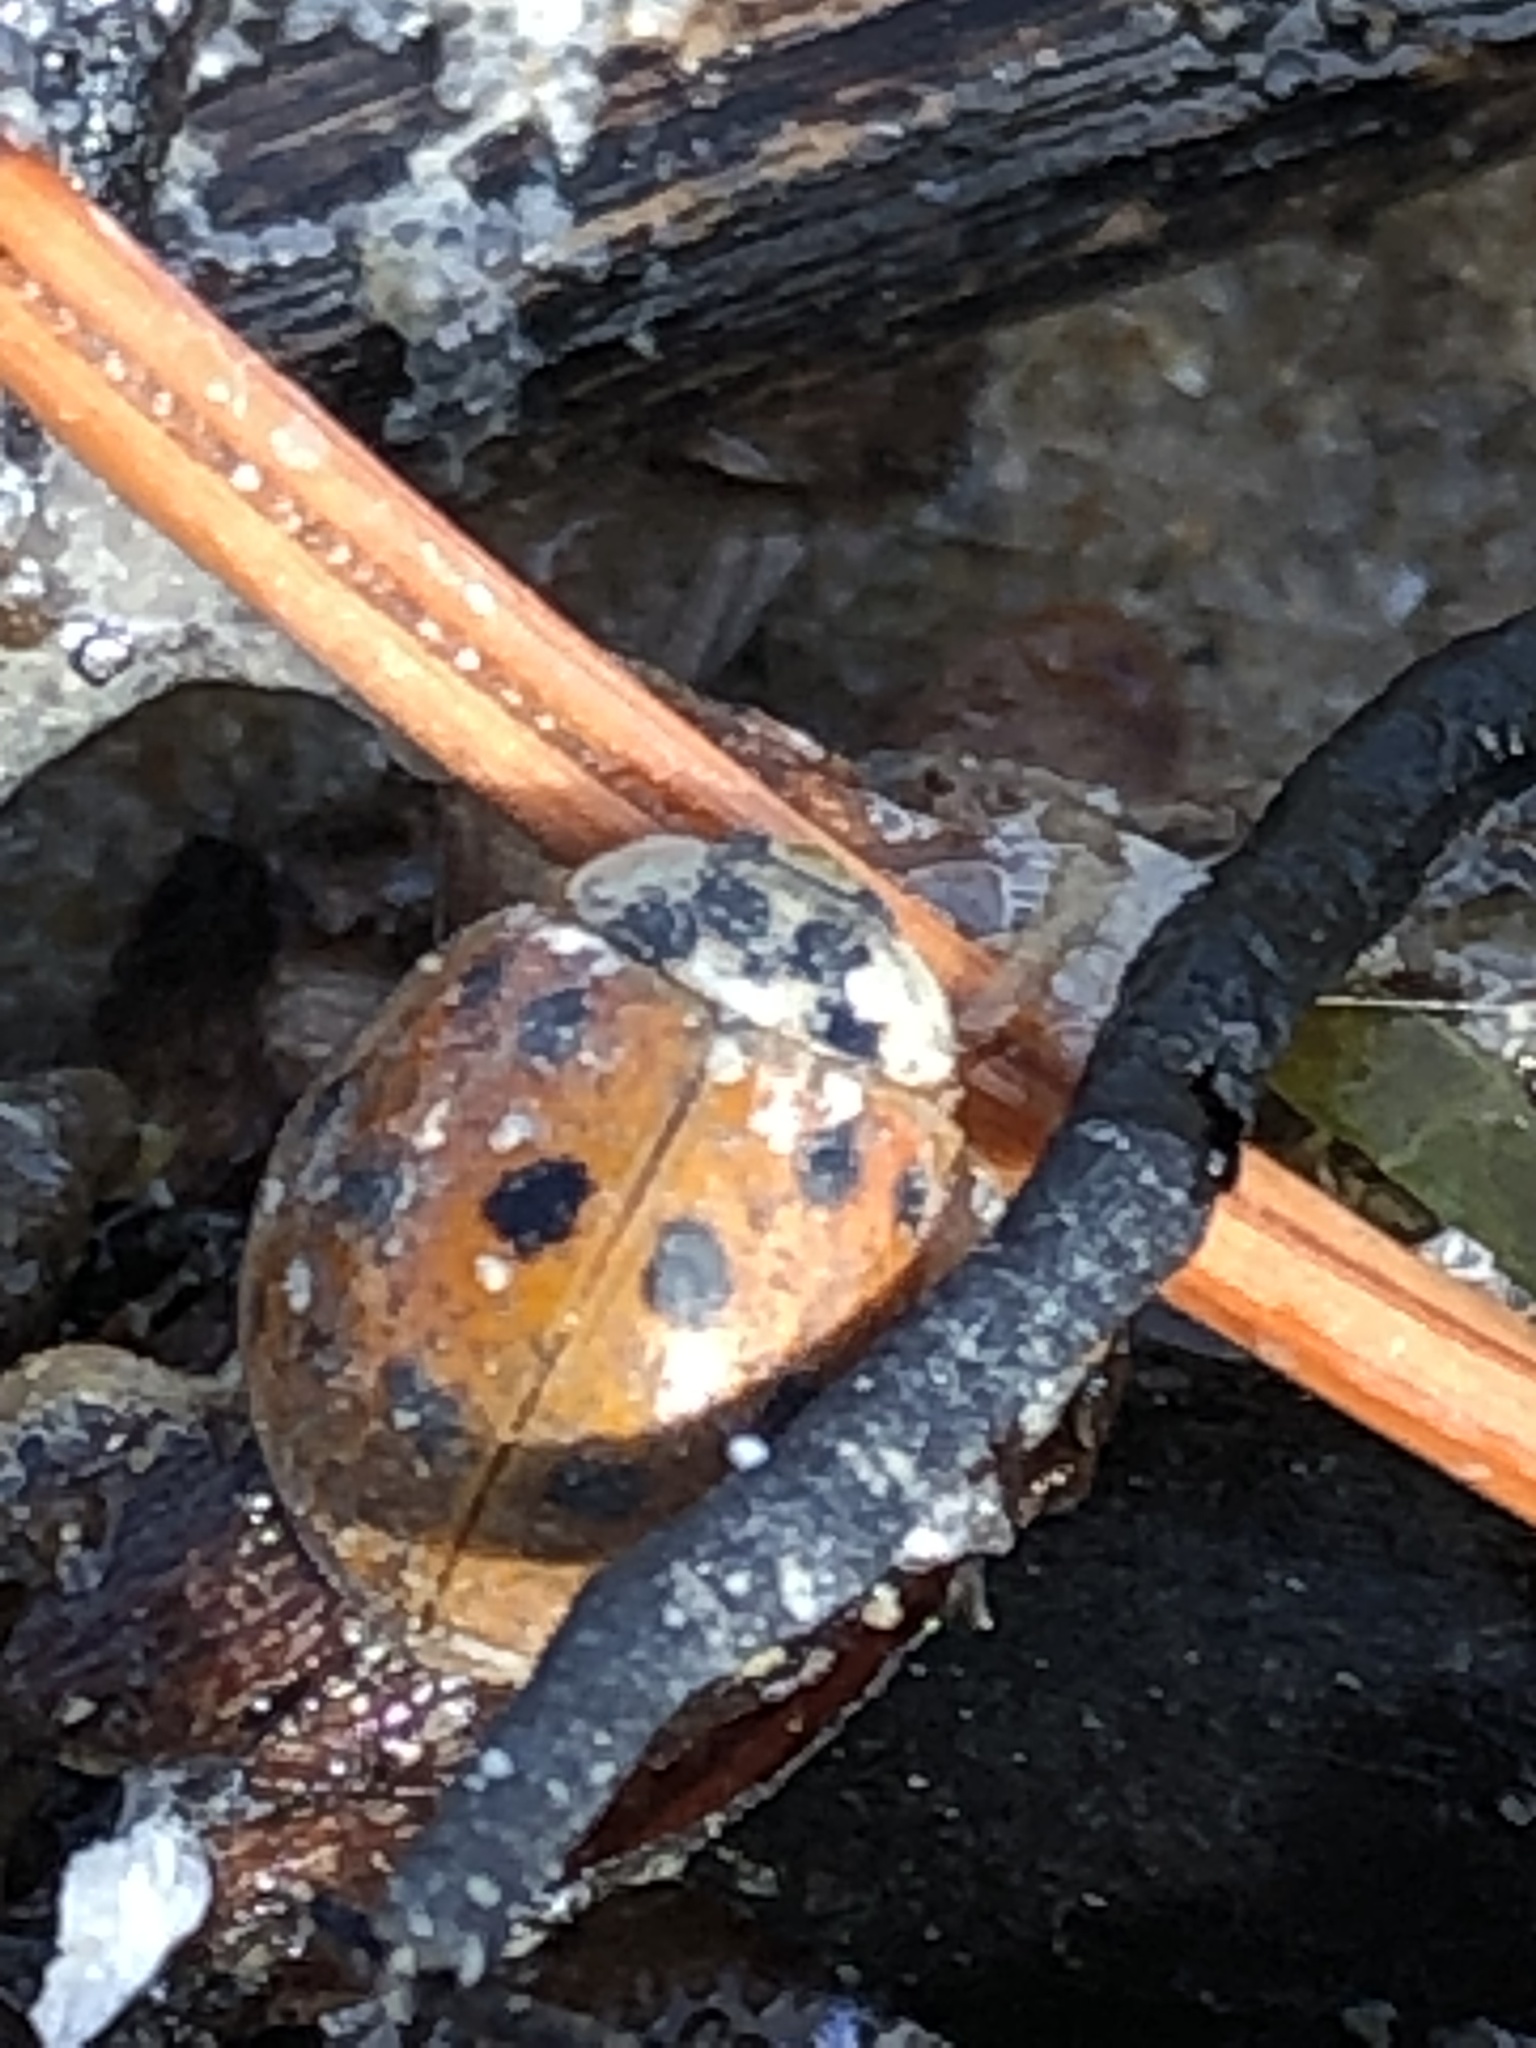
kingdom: Animalia
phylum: Arthropoda
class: Insecta
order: Coleoptera
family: Coccinellidae
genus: Harmonia
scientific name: Harmonia axyridis
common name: Harlequin ladybird
